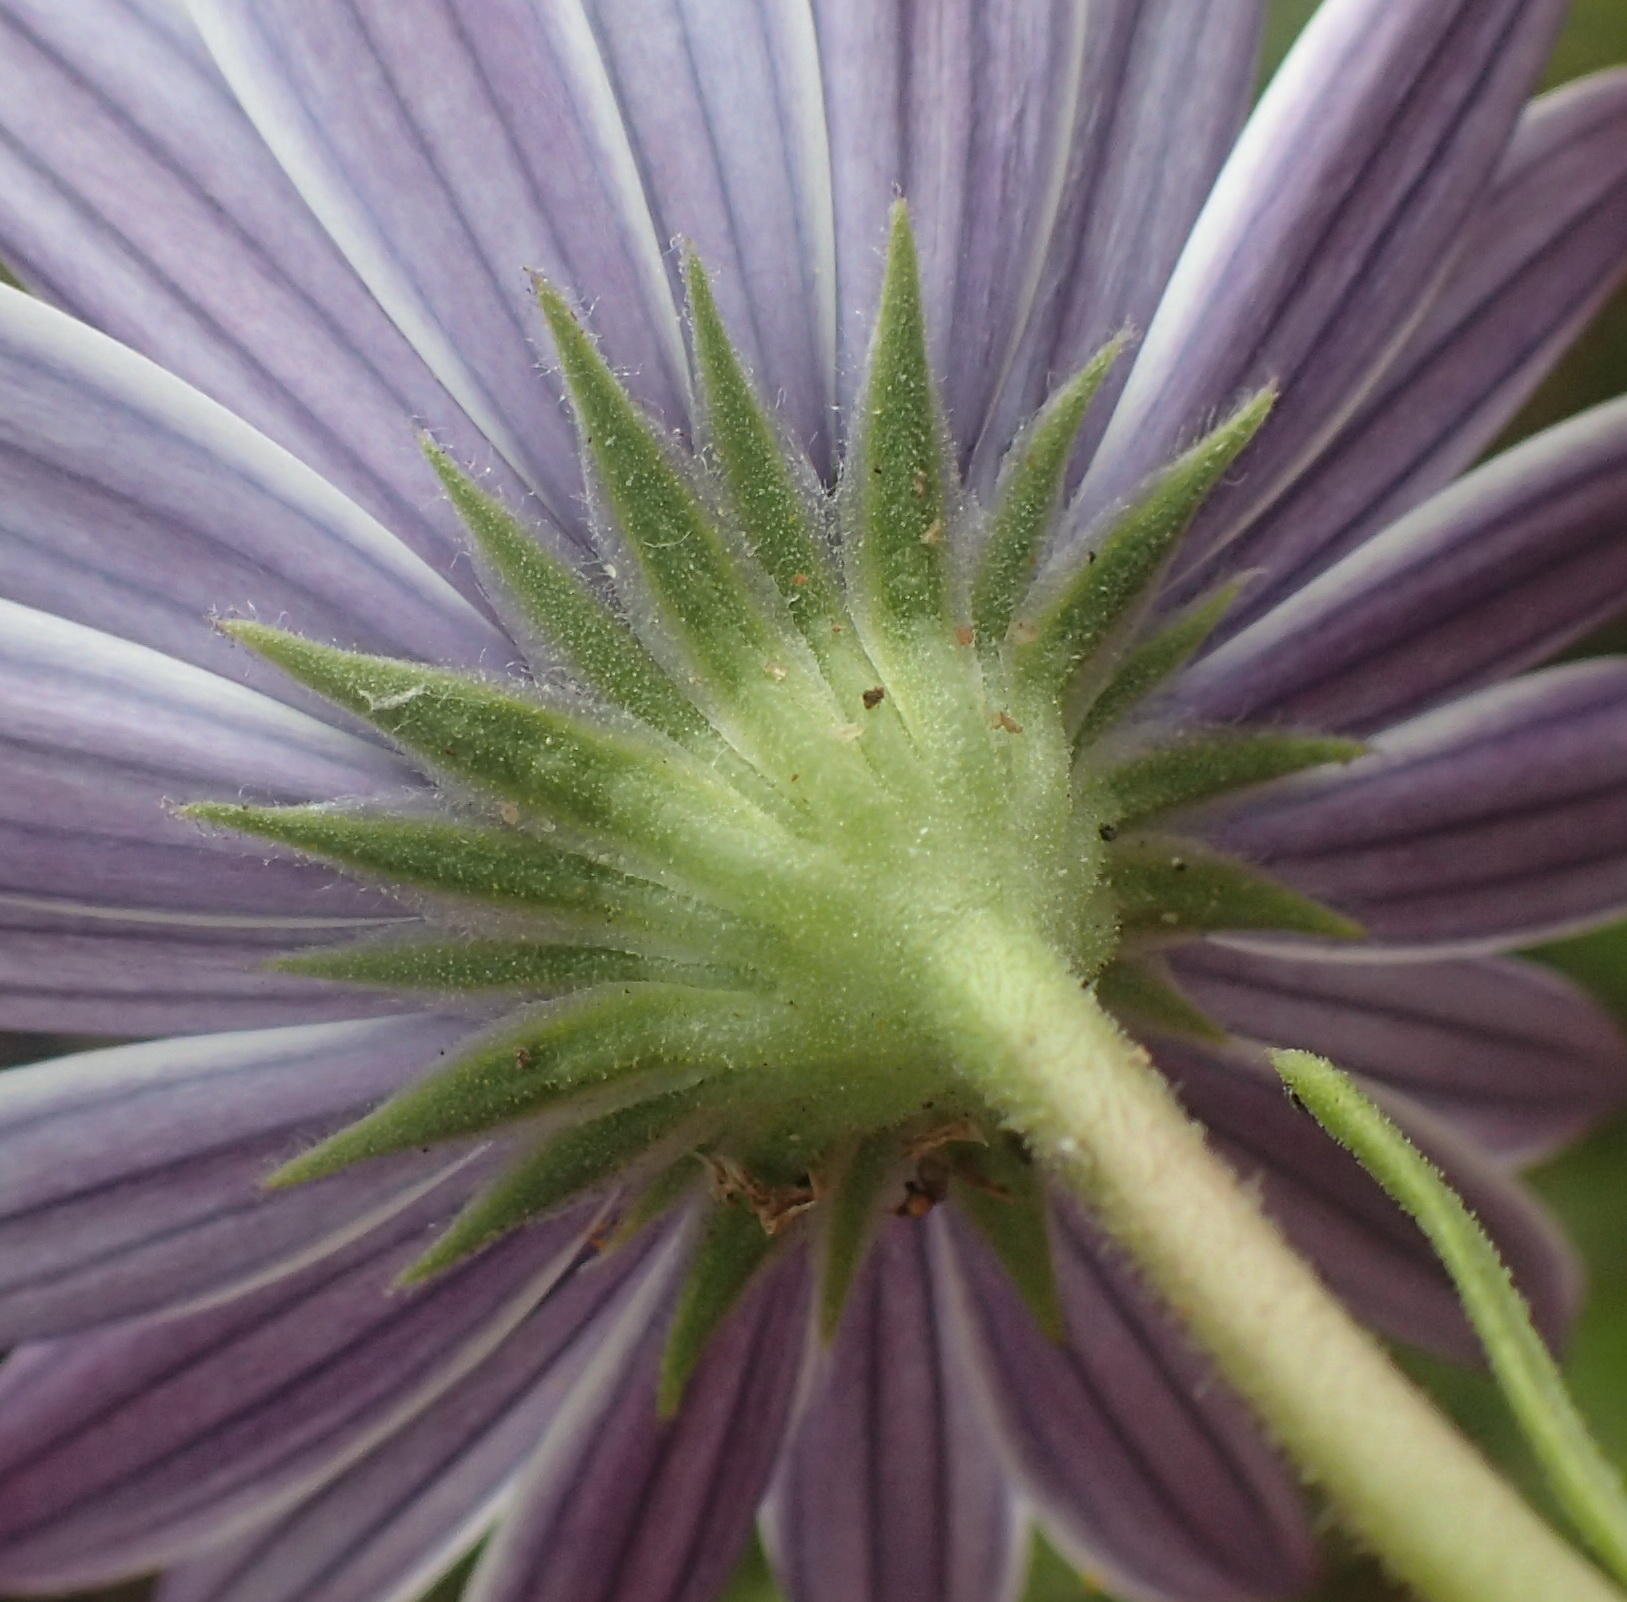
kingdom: Plantae
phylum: Tracheophyta
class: Magnoliopsida
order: Asterales
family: Asteraceae
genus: Dimorphotheca
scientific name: Dimorphotheca fruticosa
